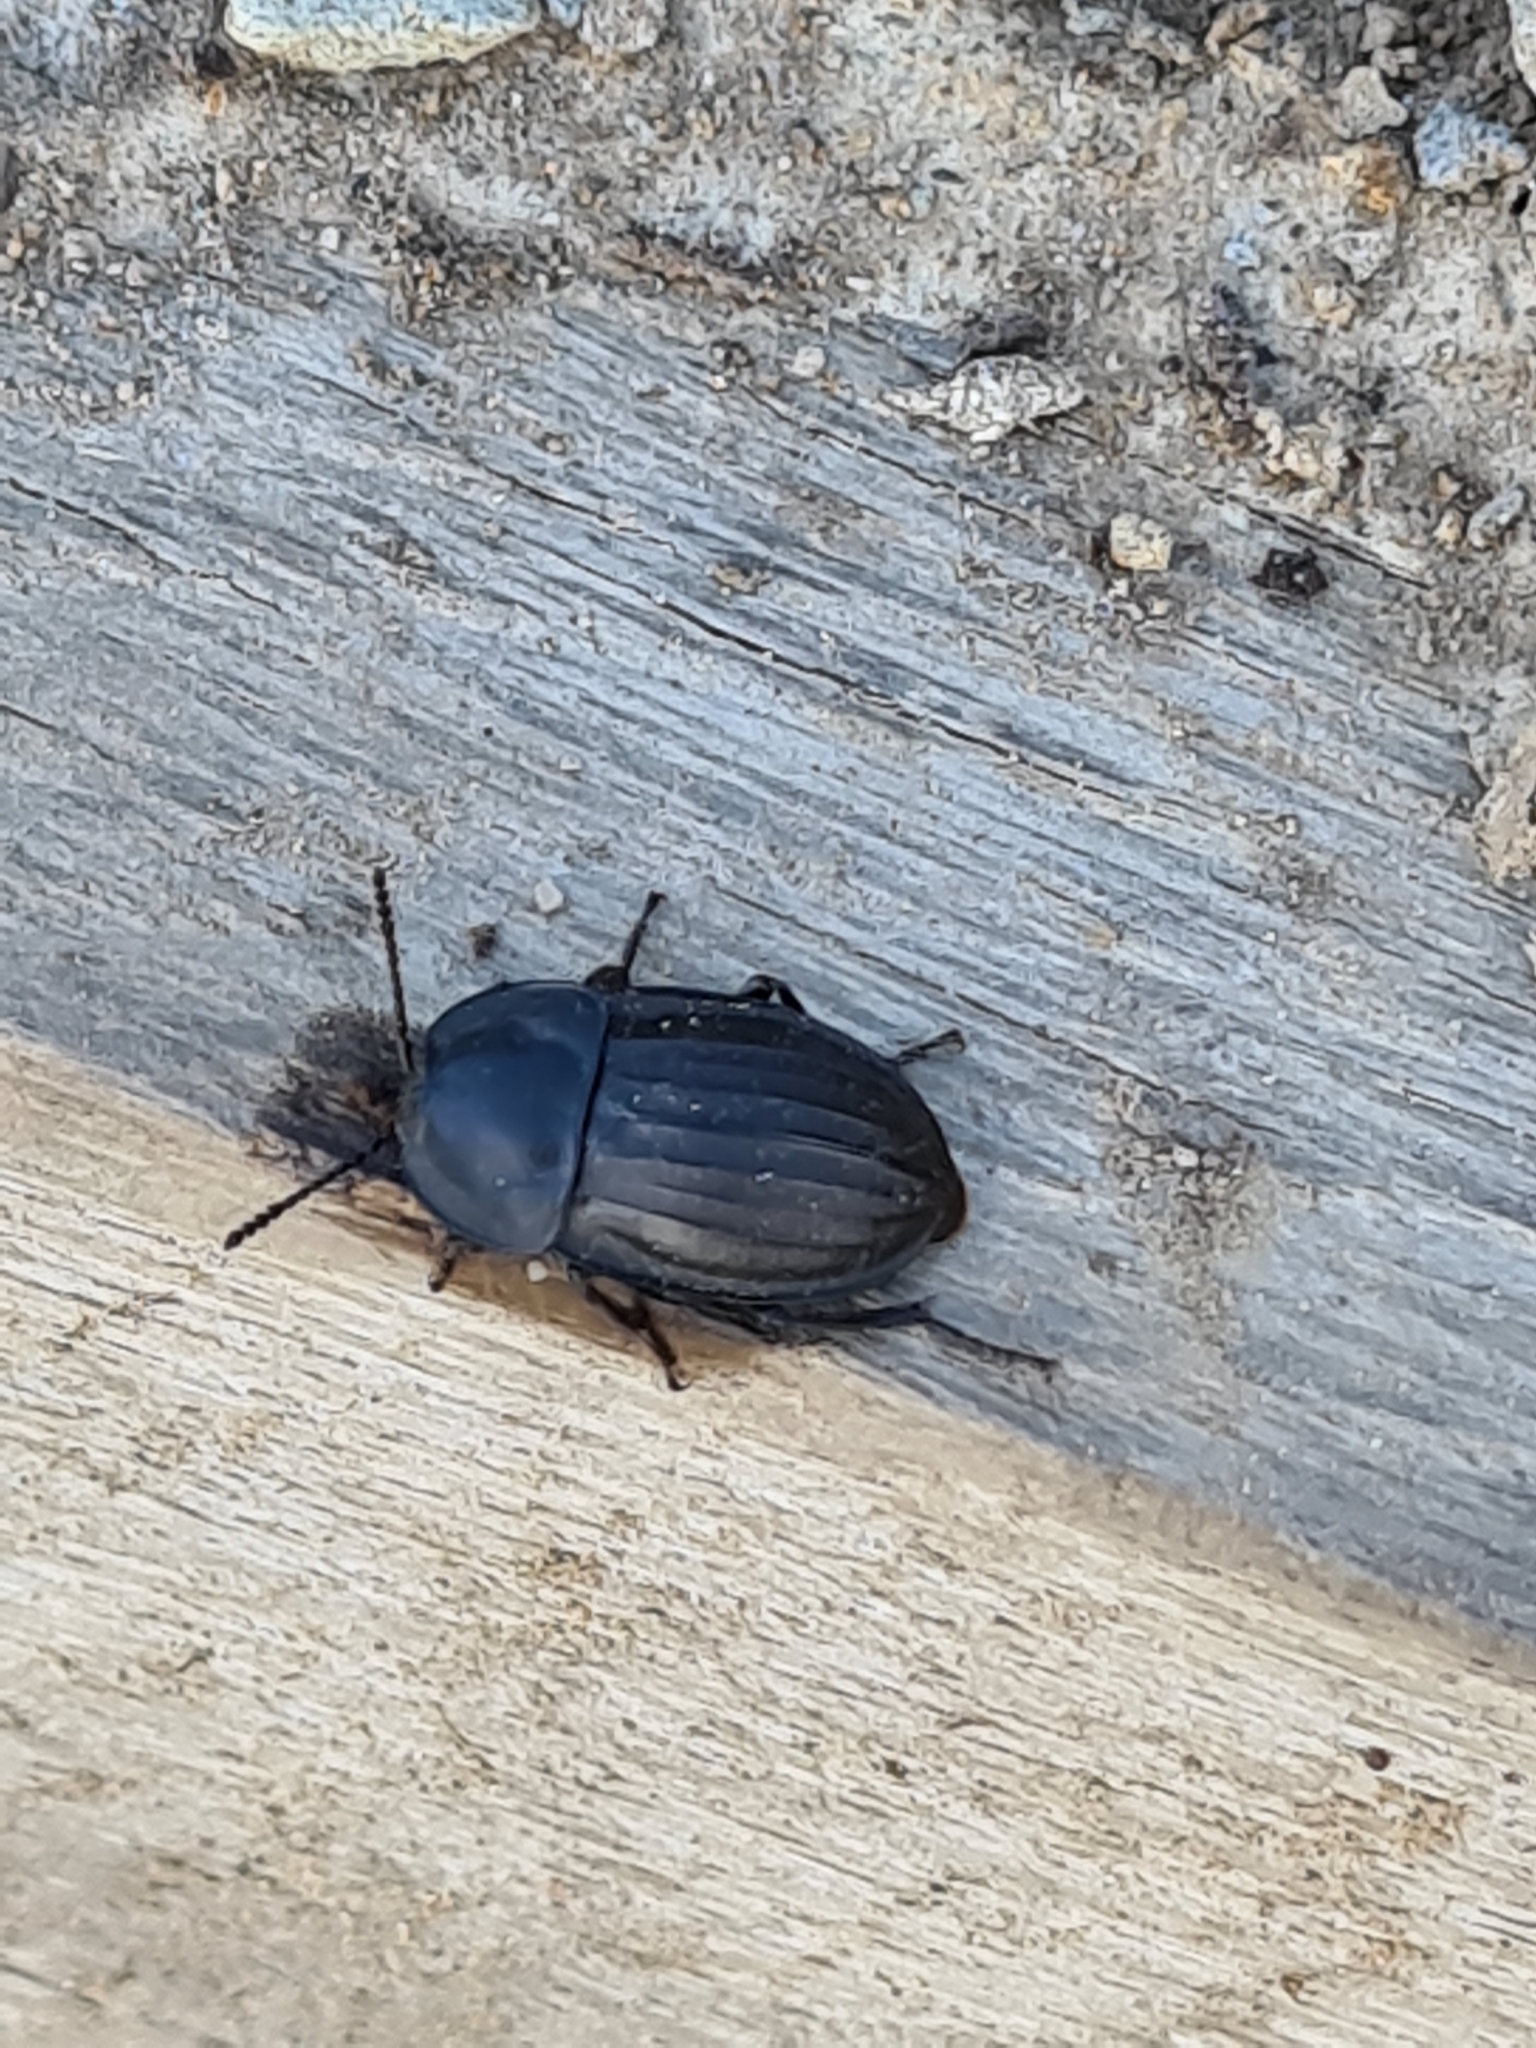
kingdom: Animalia
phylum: Arthropoda
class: Insecta
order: Coleoptera
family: Staphylinidae
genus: Silpha
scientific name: Silpha carinata
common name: Silphid beetle
